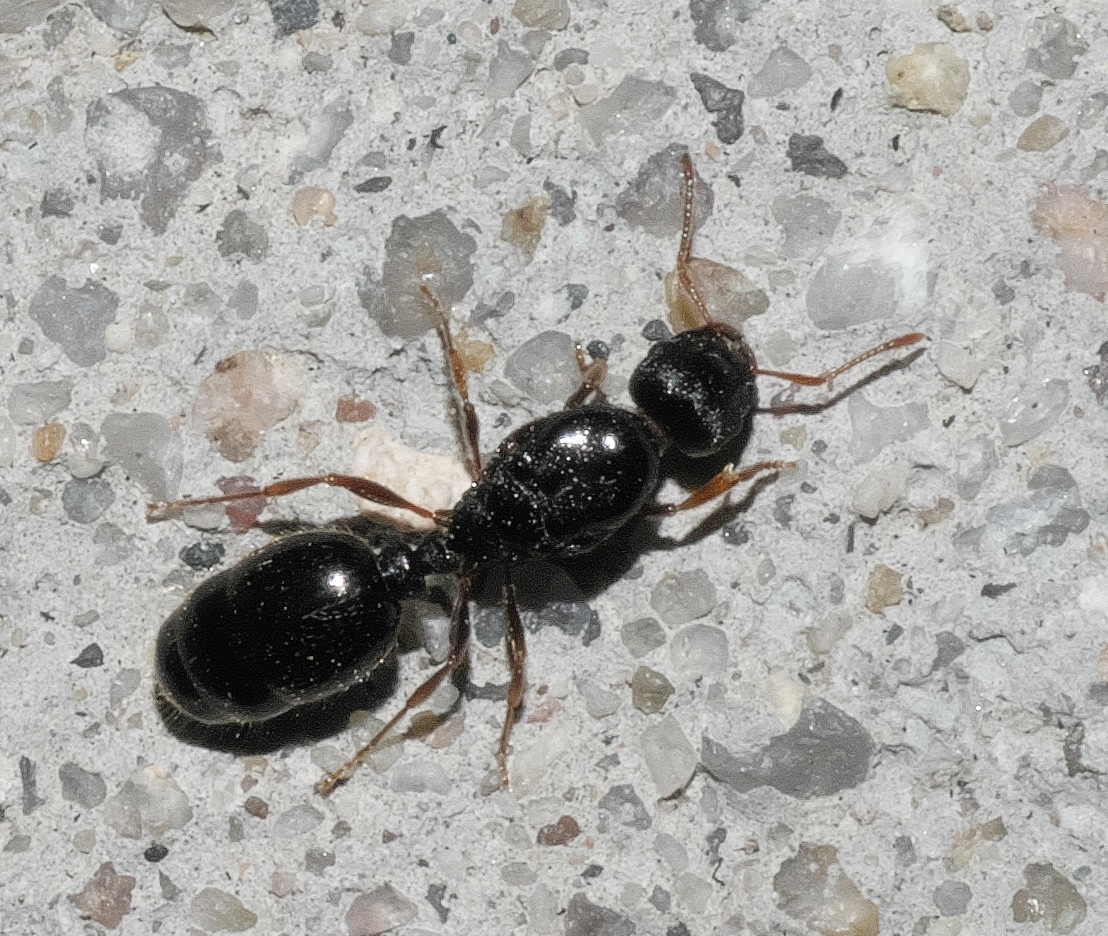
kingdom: Animalia
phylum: Arthropoda
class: Insecta
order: Hymenoptera
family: Formicidae
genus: Tetramorium
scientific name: Tetramorium immigrans
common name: Pavement ant
